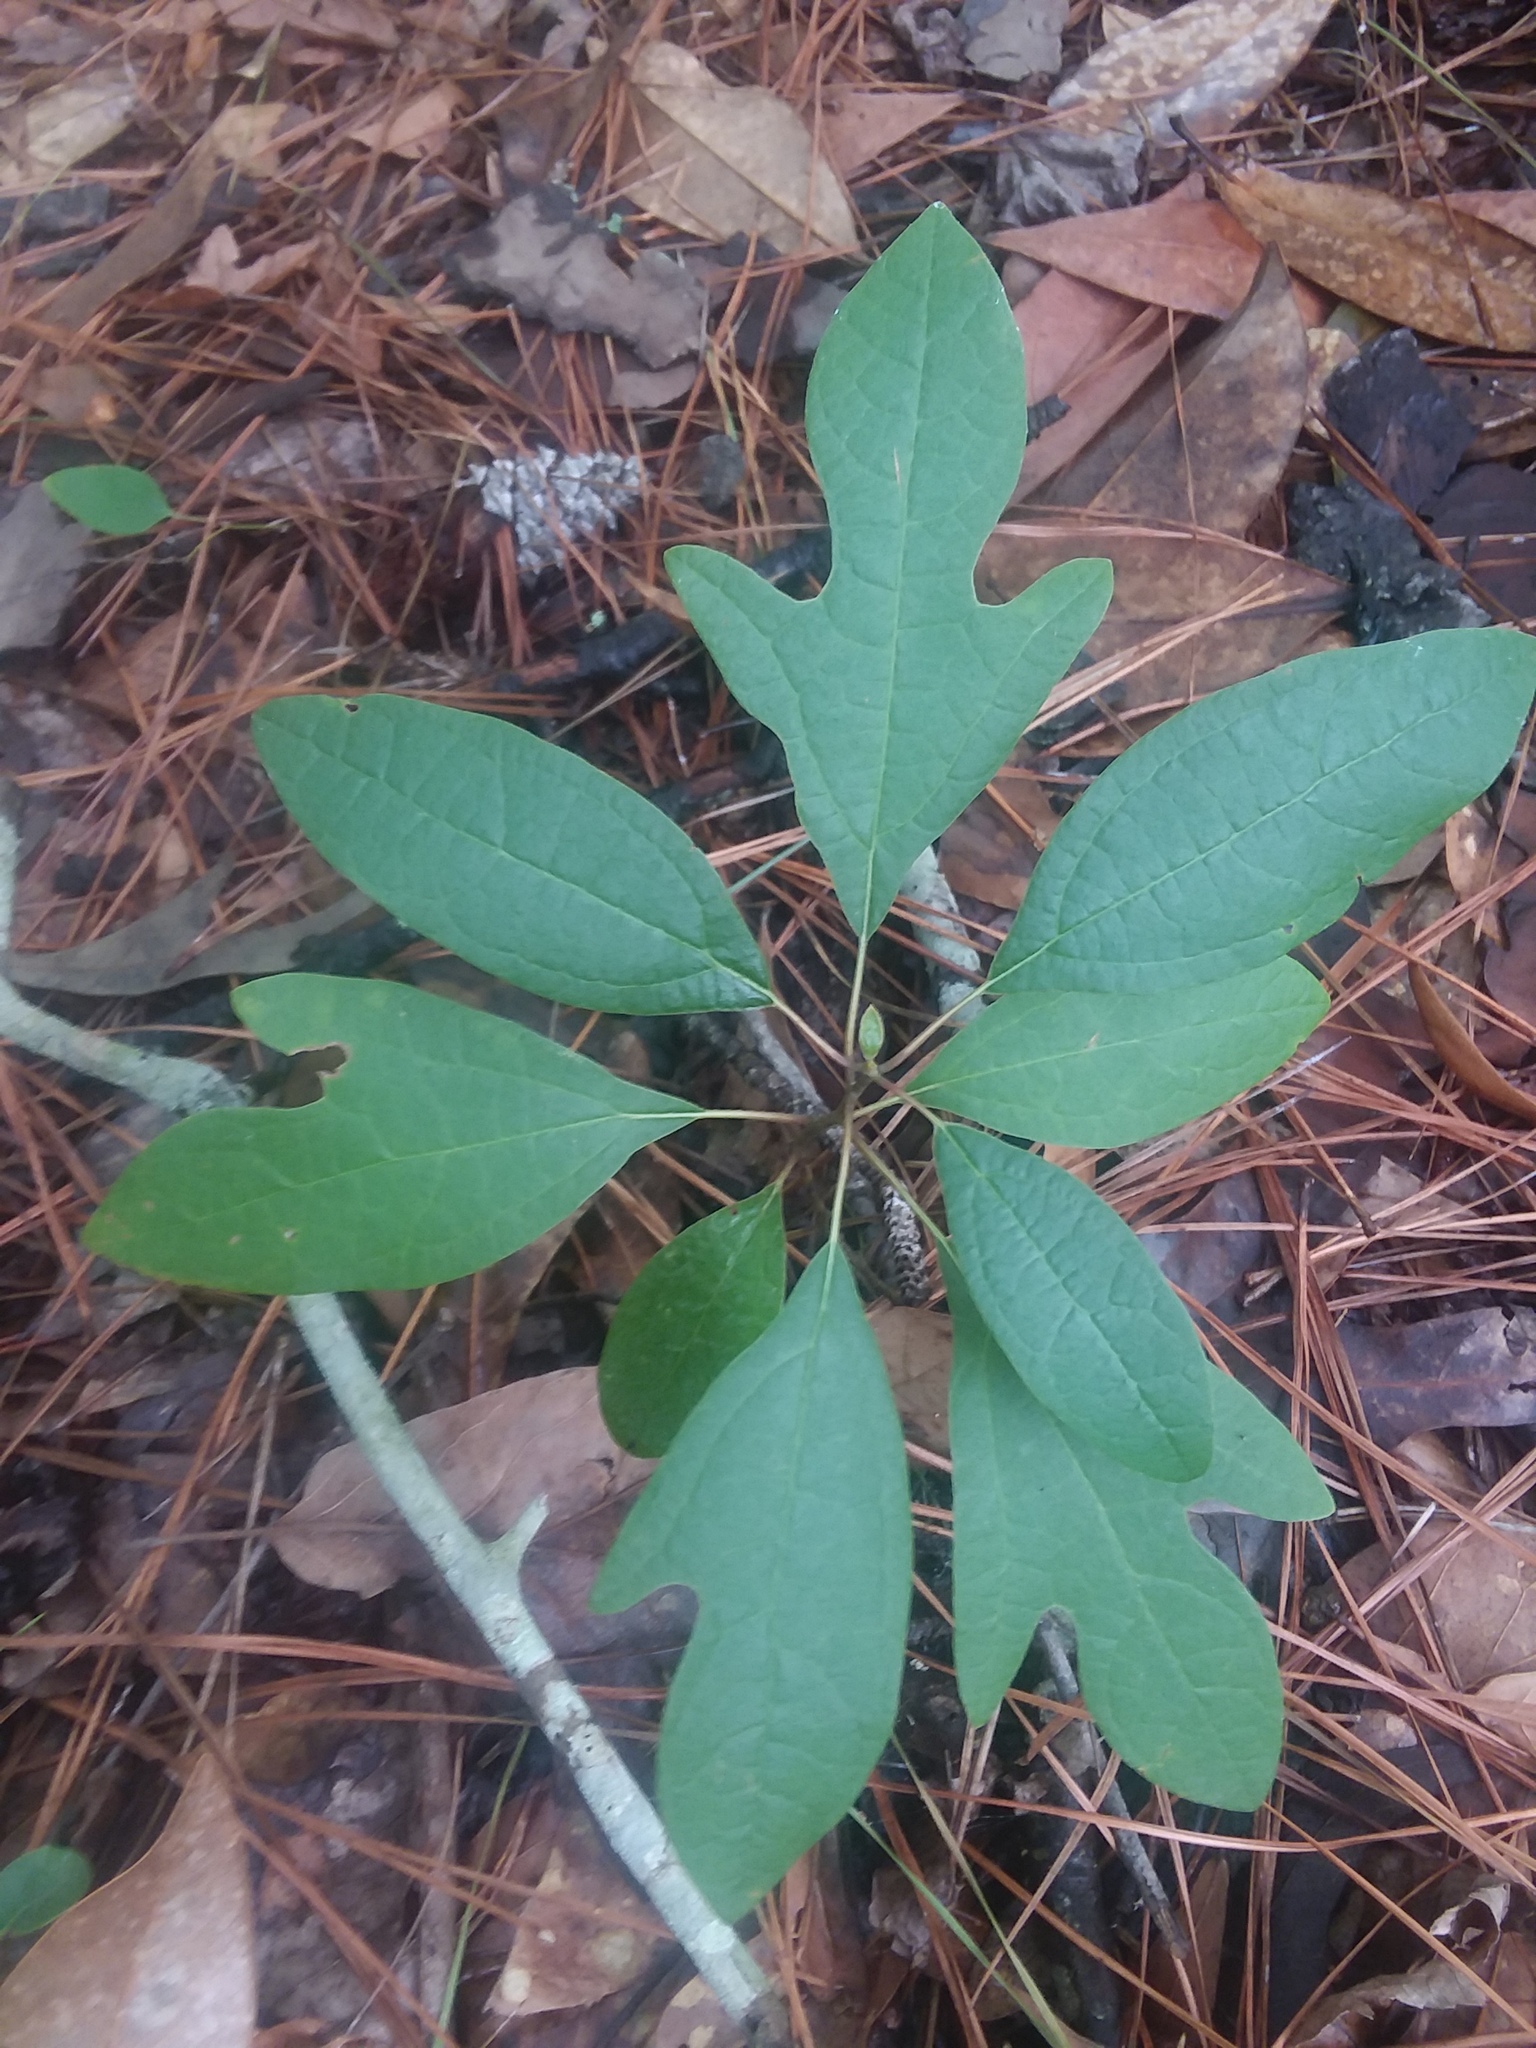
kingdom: Plantae
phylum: Tracheophyta
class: Magnoliopsida
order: Laurales
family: Lauraceae
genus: Sassafras
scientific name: Sassafras albidum
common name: Sassafras
